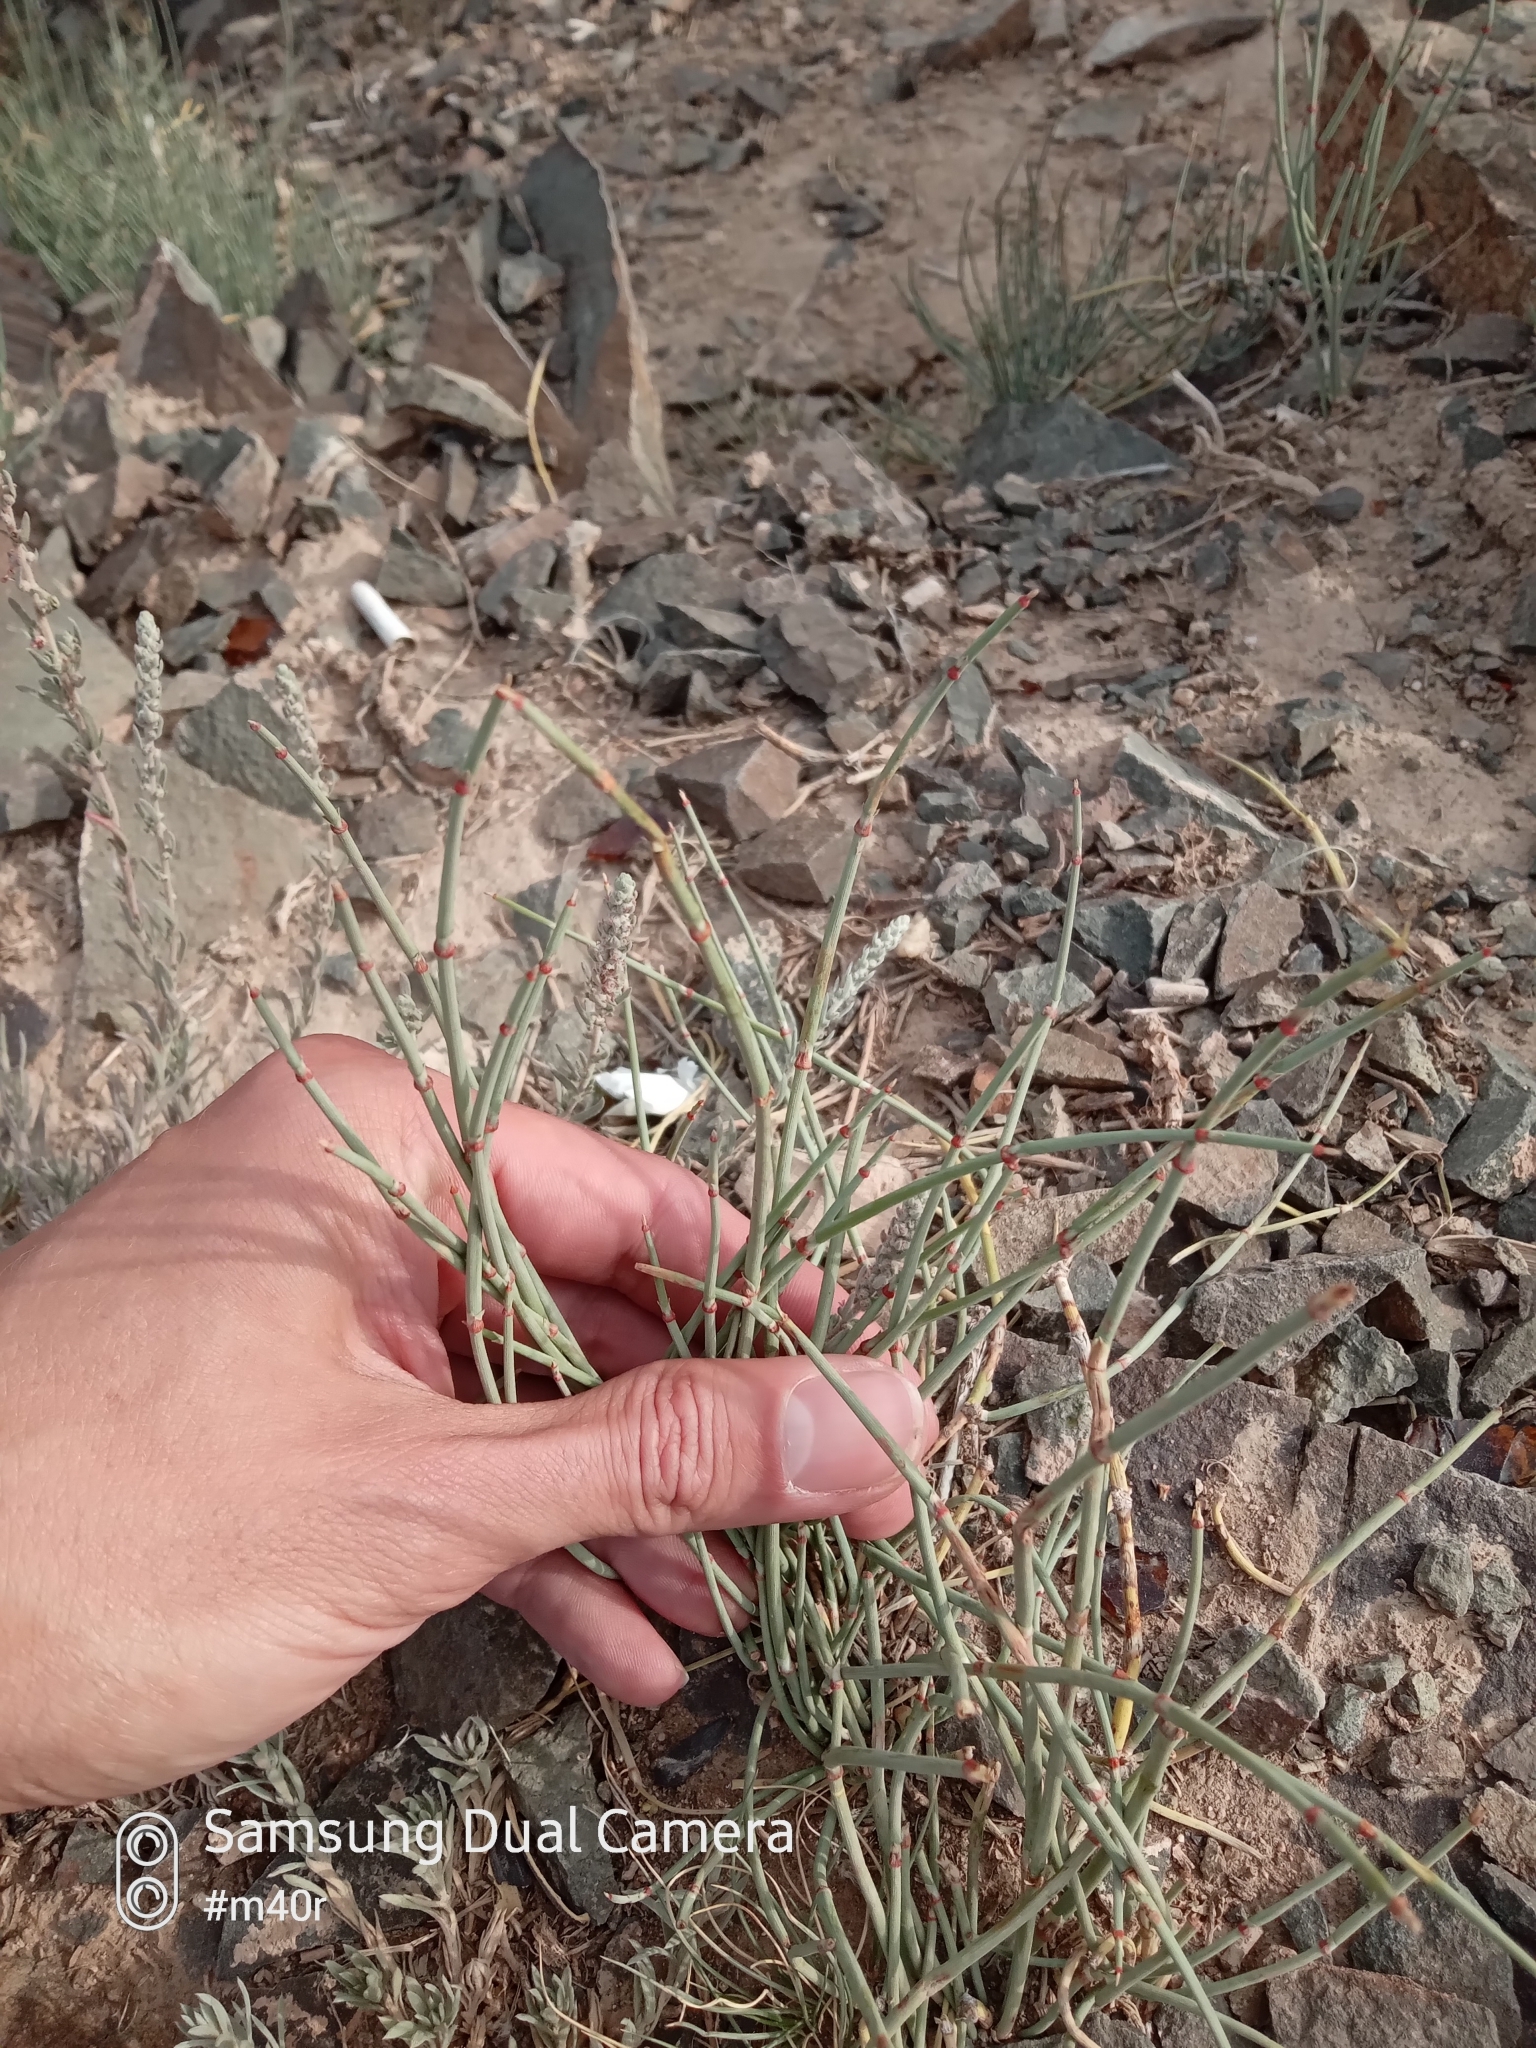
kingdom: Plantae
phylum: Tracheophyta
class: Gnetopsida
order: Ephedrales
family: Ephedraceae
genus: Ephedra
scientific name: Ephedra intermedia
